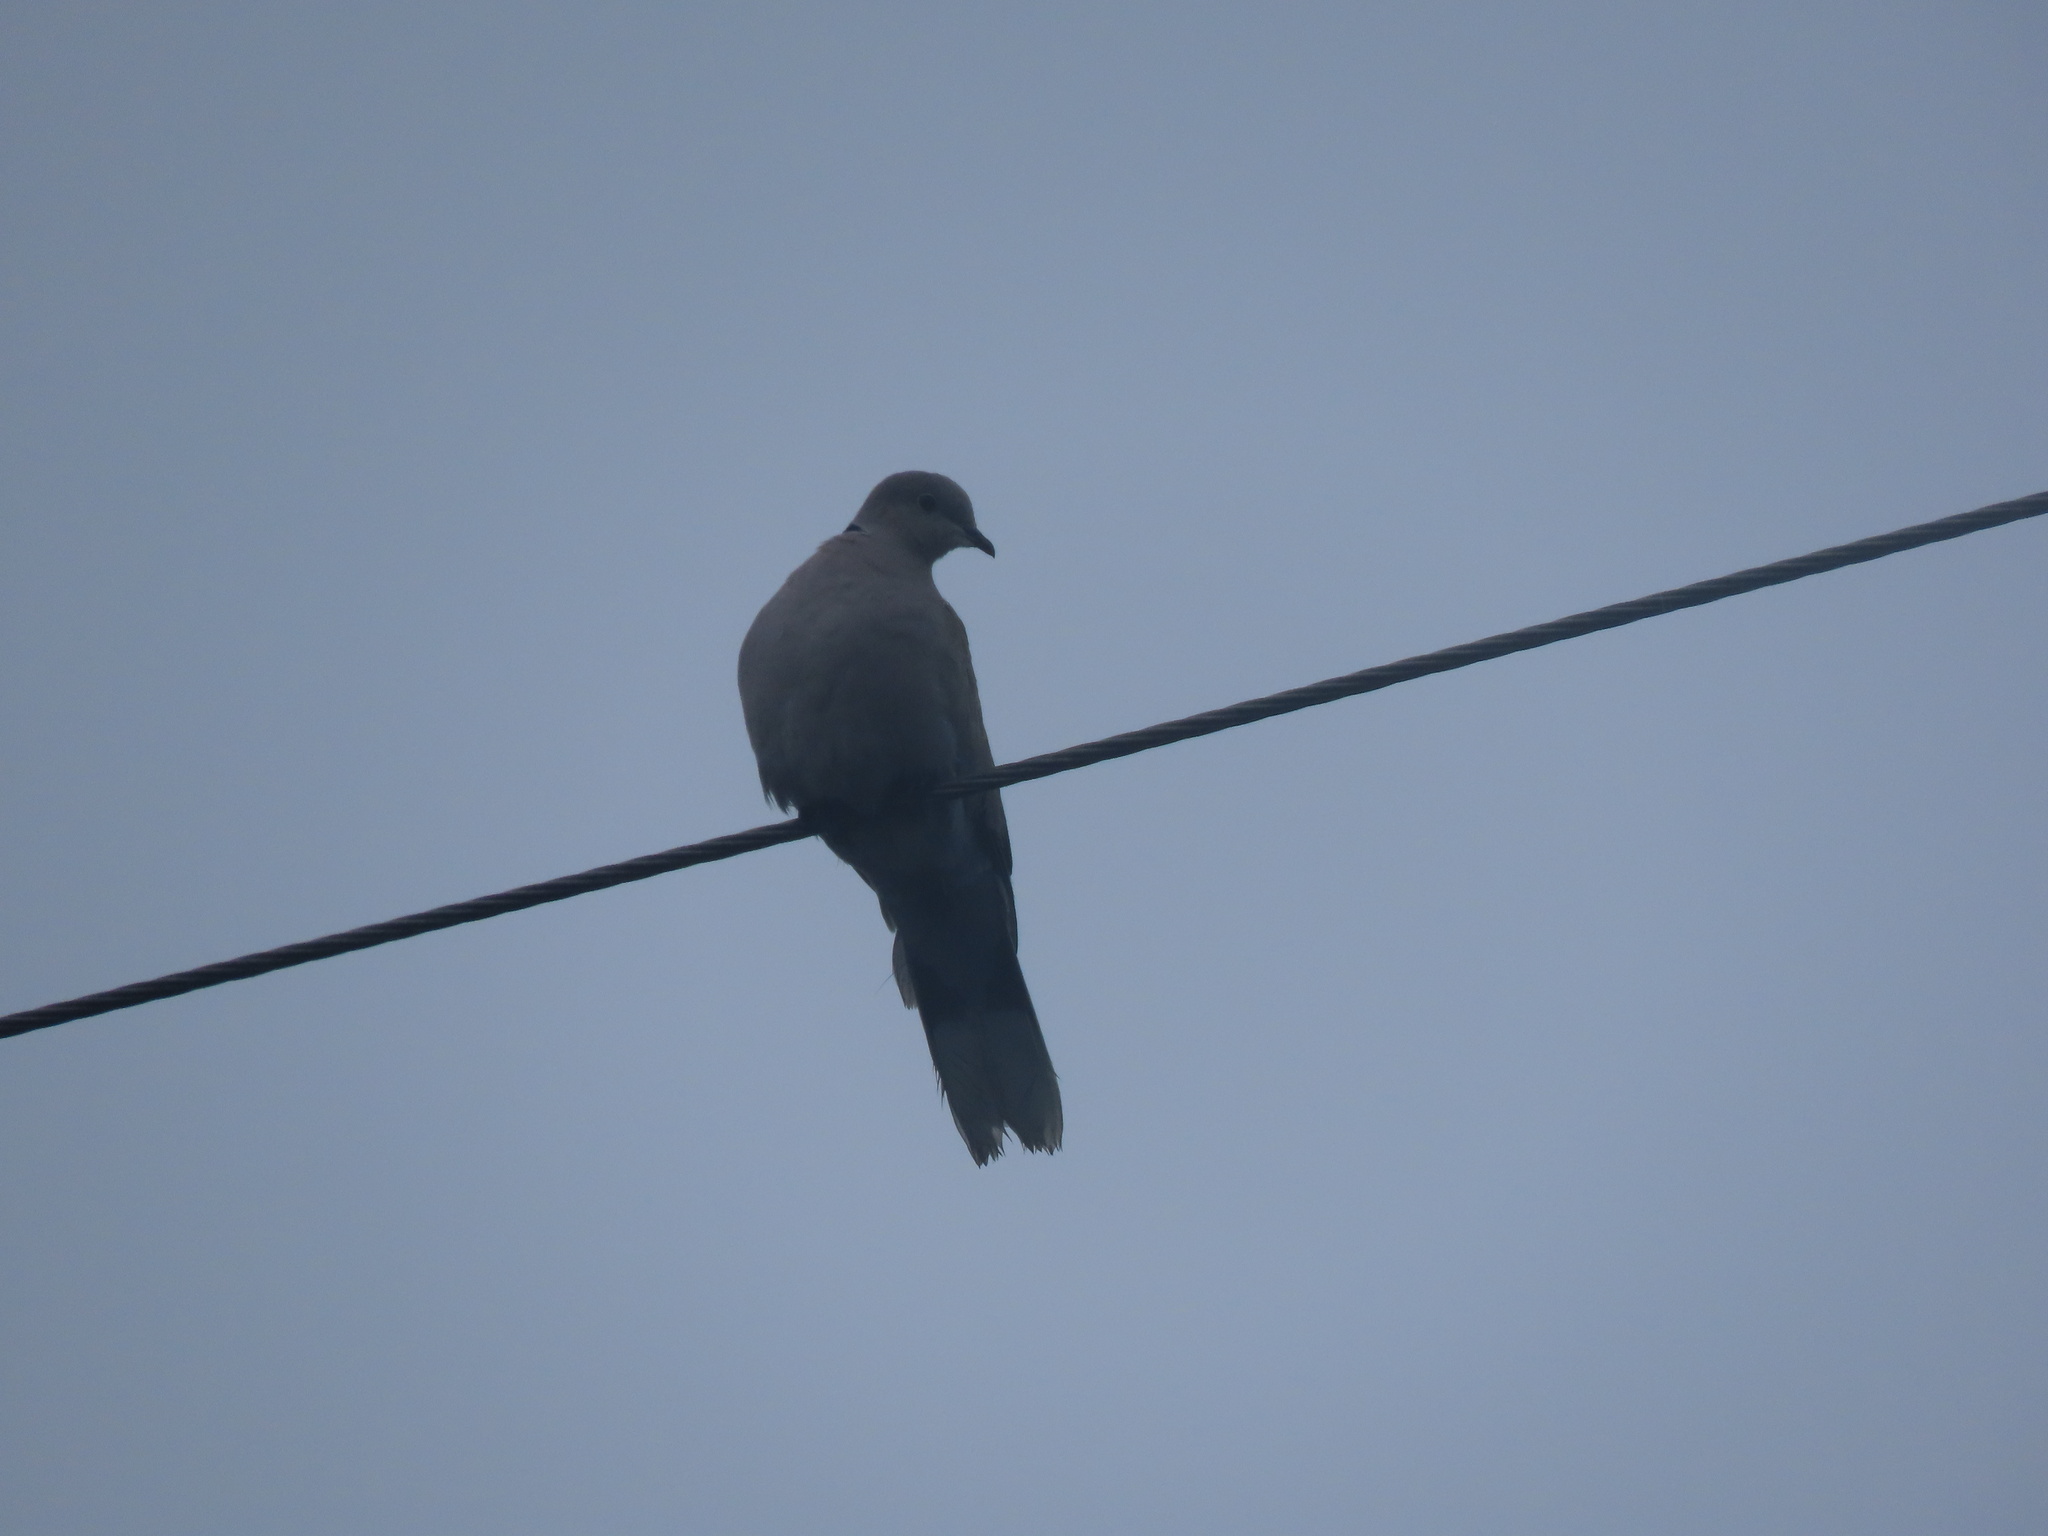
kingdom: Animalia
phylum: Chordata
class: Aves
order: Columbiformes
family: Columbidae
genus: Streptopelia
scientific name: Streptopelia decaocto
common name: Eurasian collared dove
